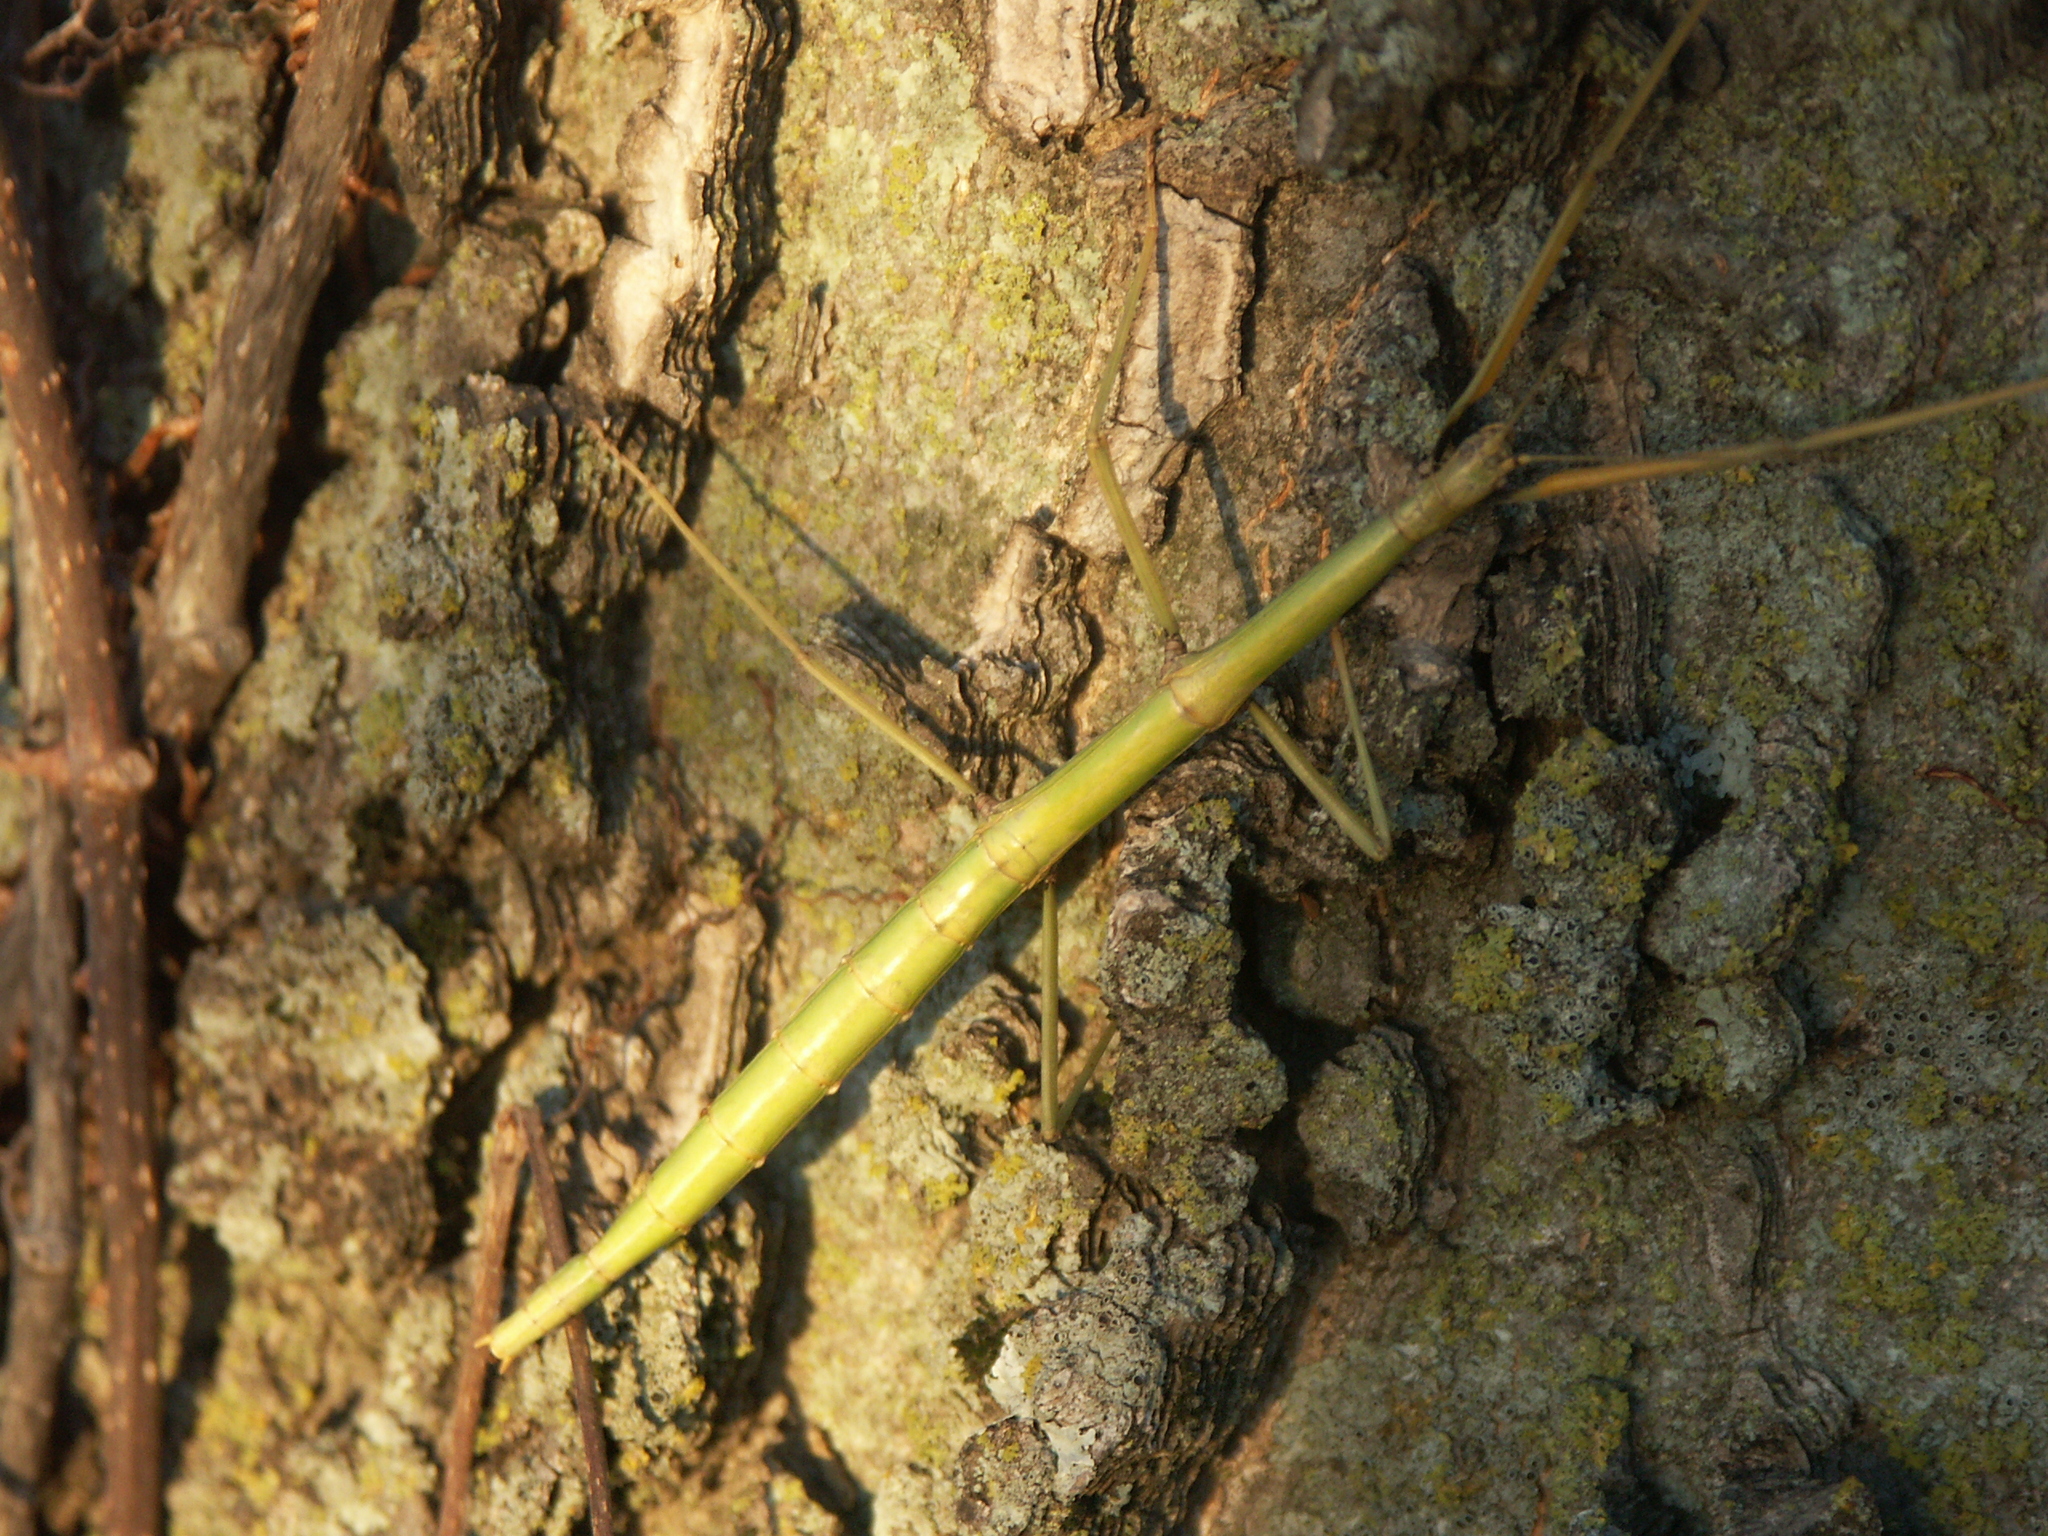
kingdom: Animalia
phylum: Arthropoda
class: Insecta
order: Phasmida
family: Diapheromeridae
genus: Diapheromera
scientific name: Diapheromera femorata
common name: Common american walkingstick
